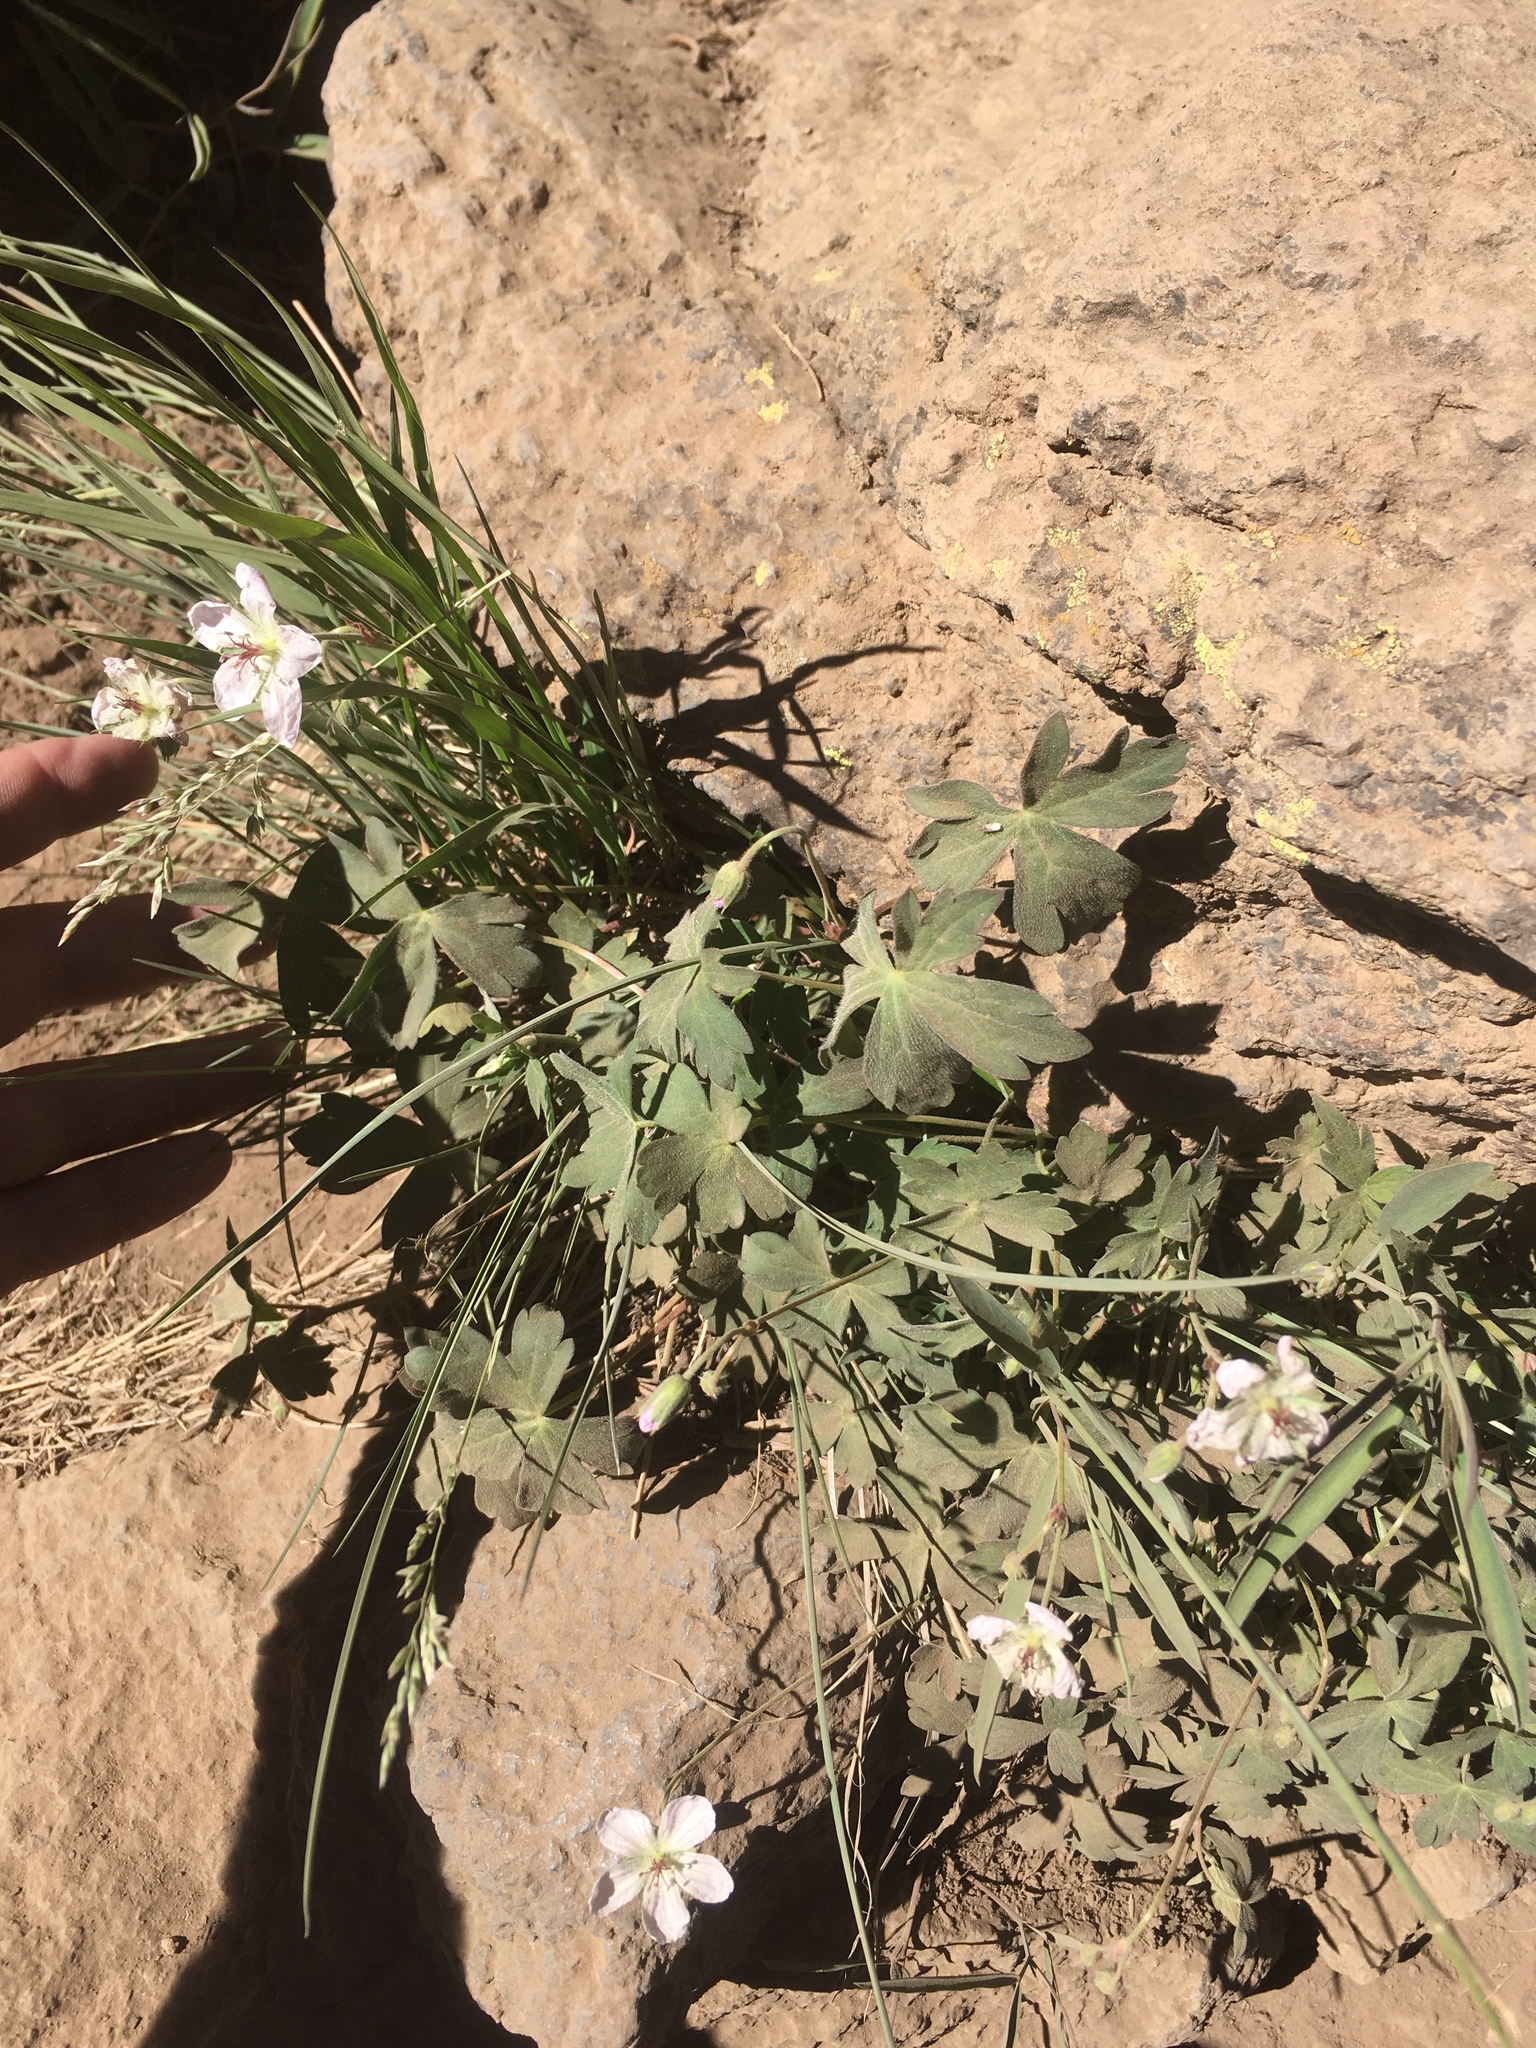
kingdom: Plantae
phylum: Tracheophyta
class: Magnoliopsida
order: Geraniales
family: Geraniaceae
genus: Geranium
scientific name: Geranium richardsonii
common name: Richardson's crane's-bill
